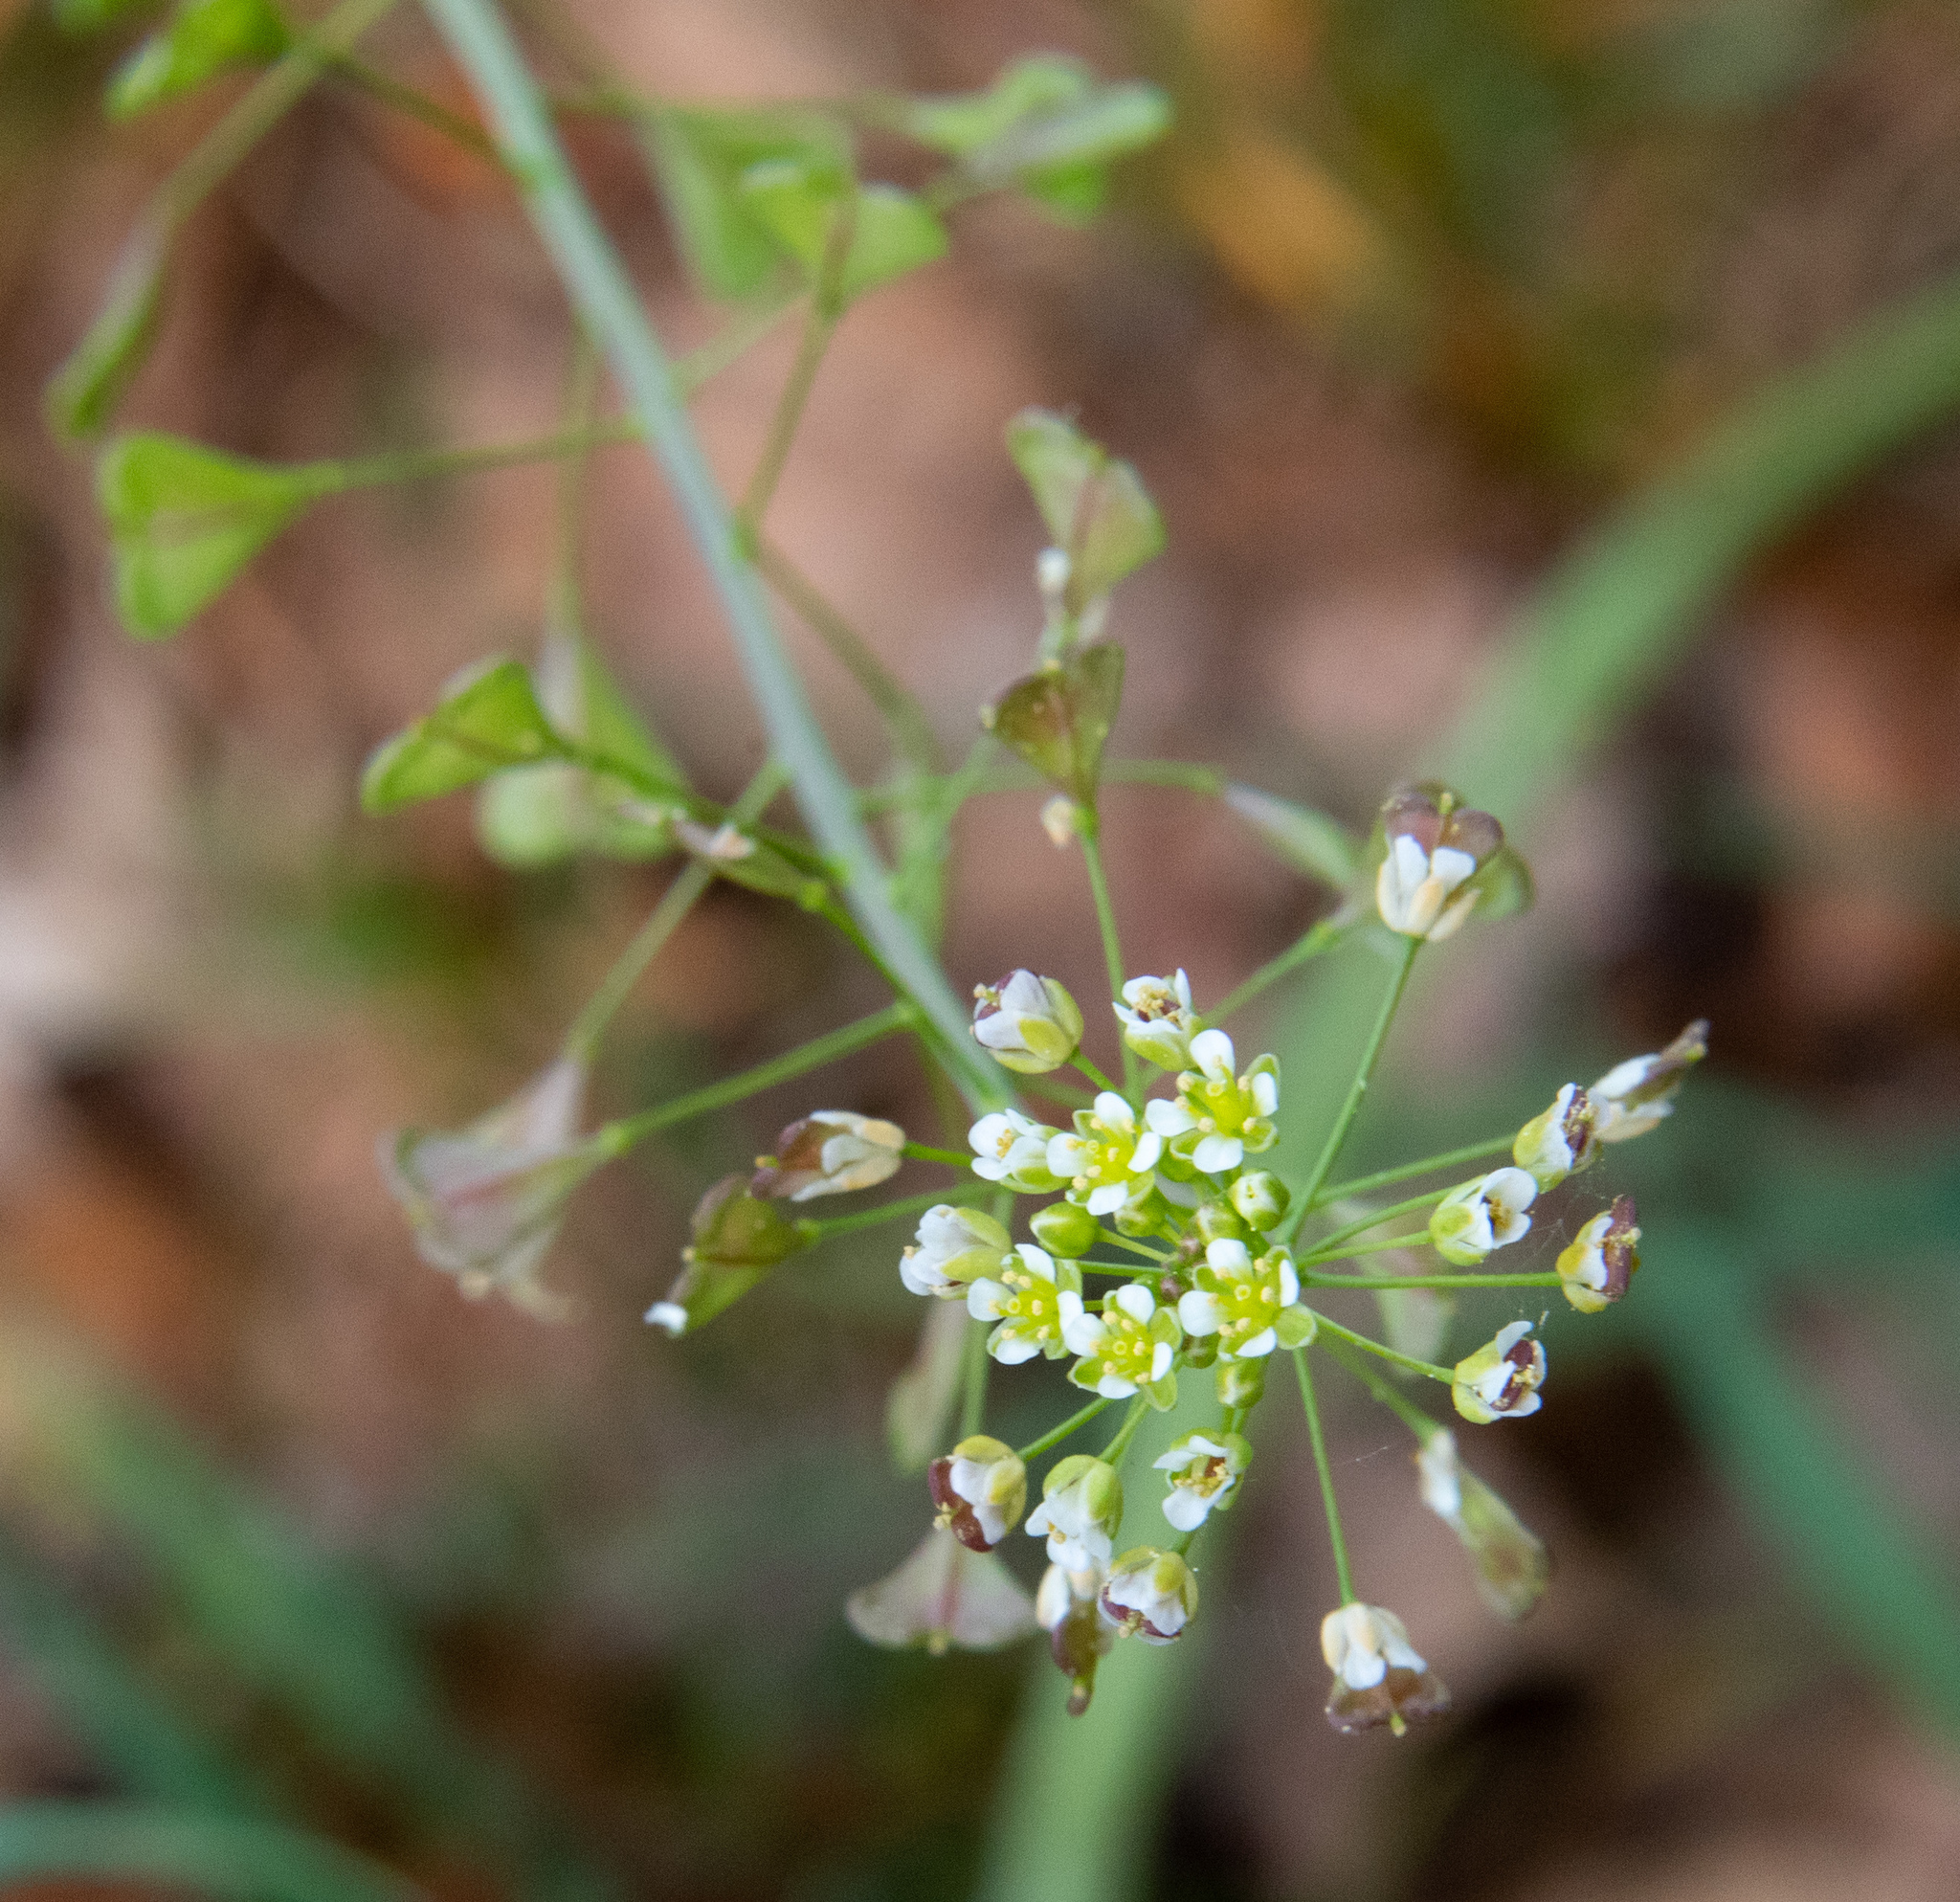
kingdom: Plantae
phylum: Tracheophyta
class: Magnoliopsida
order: Brassicales
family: Brassicaceae
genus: Capsella
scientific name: Capsella bursa-pastoris
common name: Shepherd's purse
